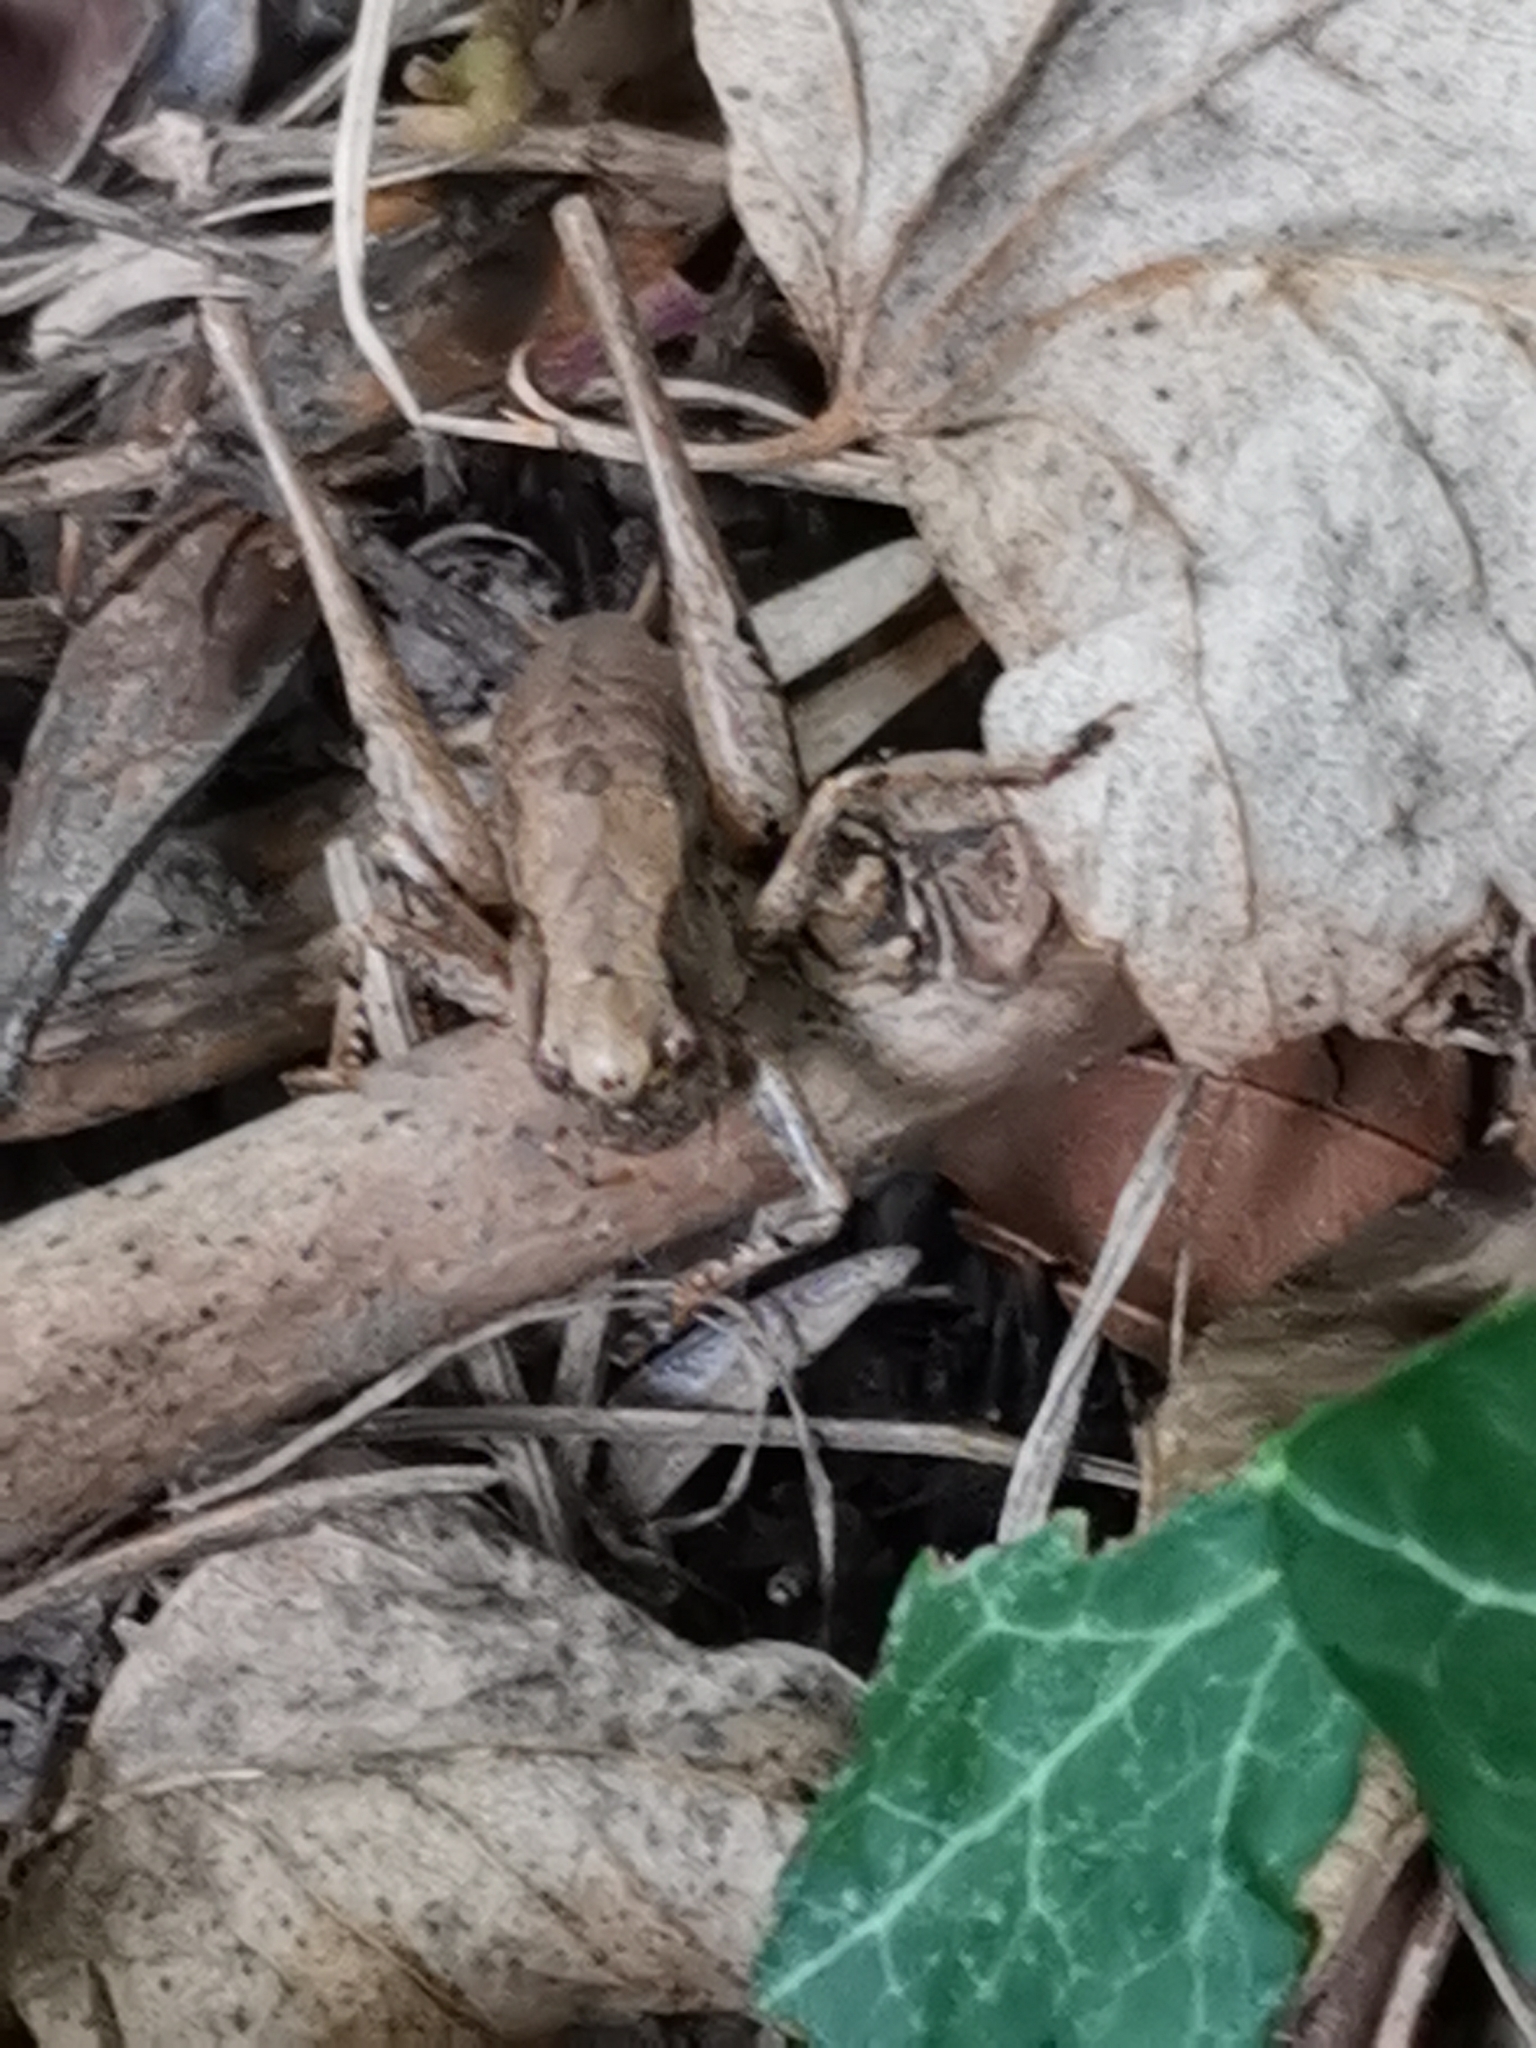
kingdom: Animalia
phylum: Arthropoda
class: Insecta
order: Orthoptera
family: Tettigoniidae
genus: Pholidoptera
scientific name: Pholidoptera griseoaptera
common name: Dark bush-cricket
